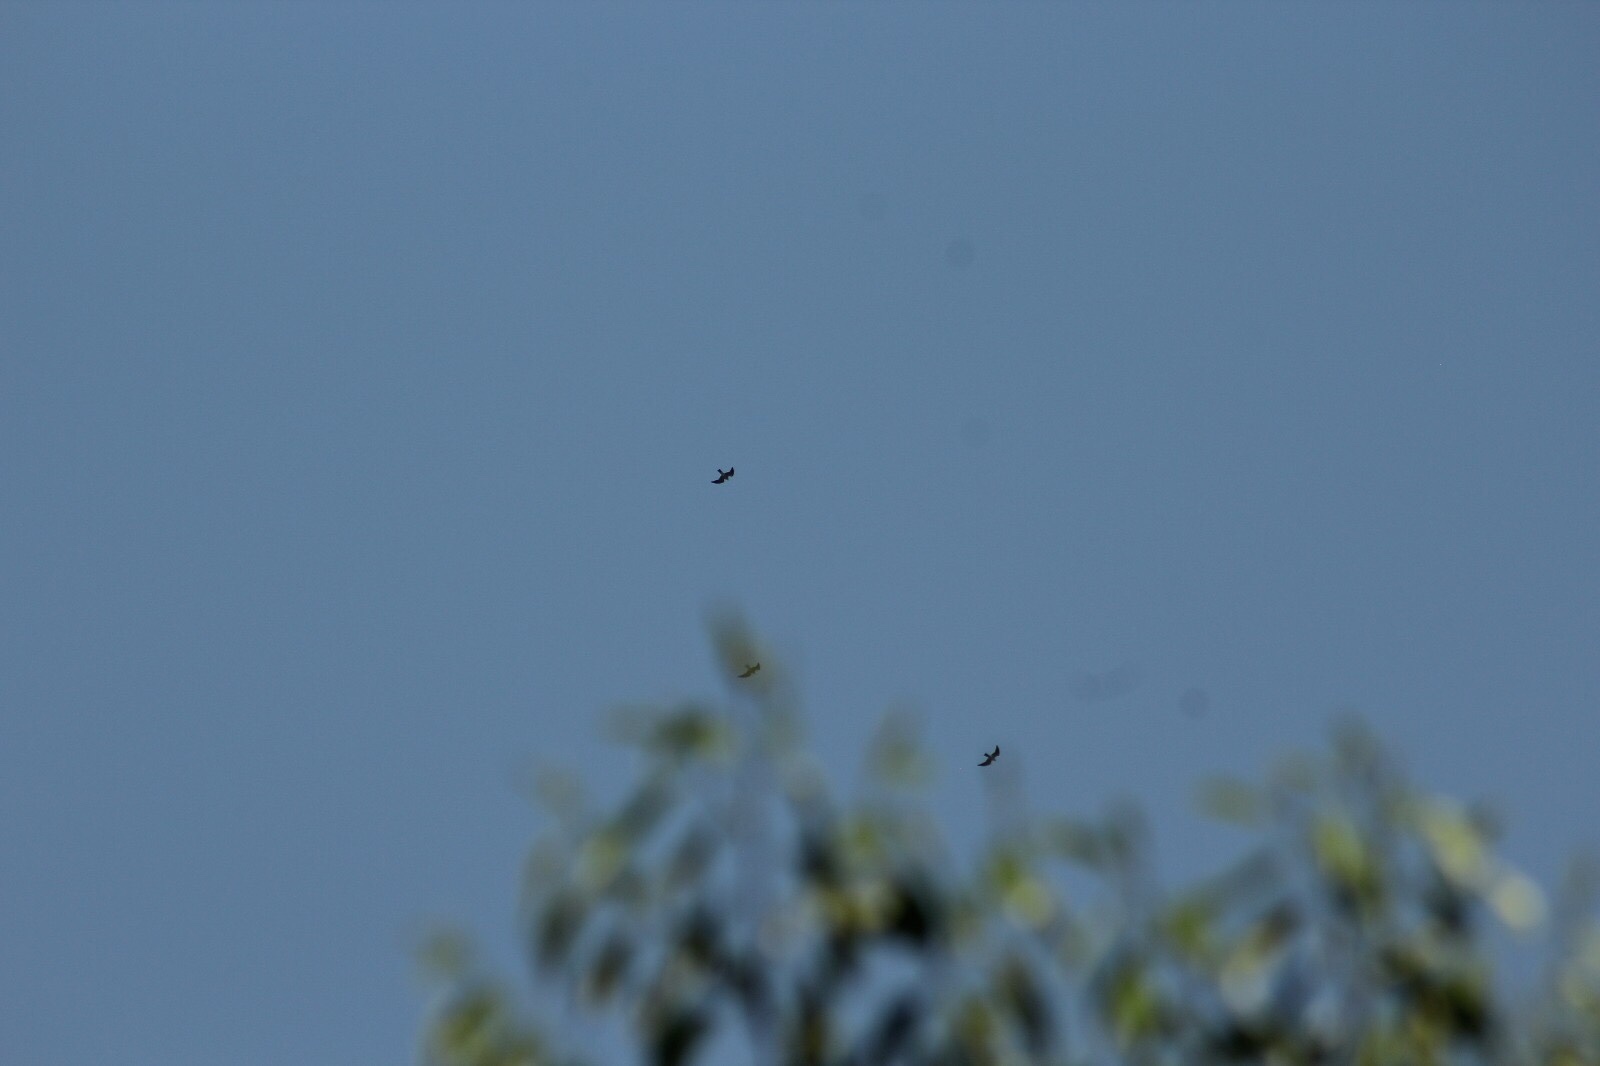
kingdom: Animalia
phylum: Chordata
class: Aves
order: Accipitriformes
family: Accipitridae
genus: Ictinia
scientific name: Ictinia mississippiensis
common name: Mississippi kite
